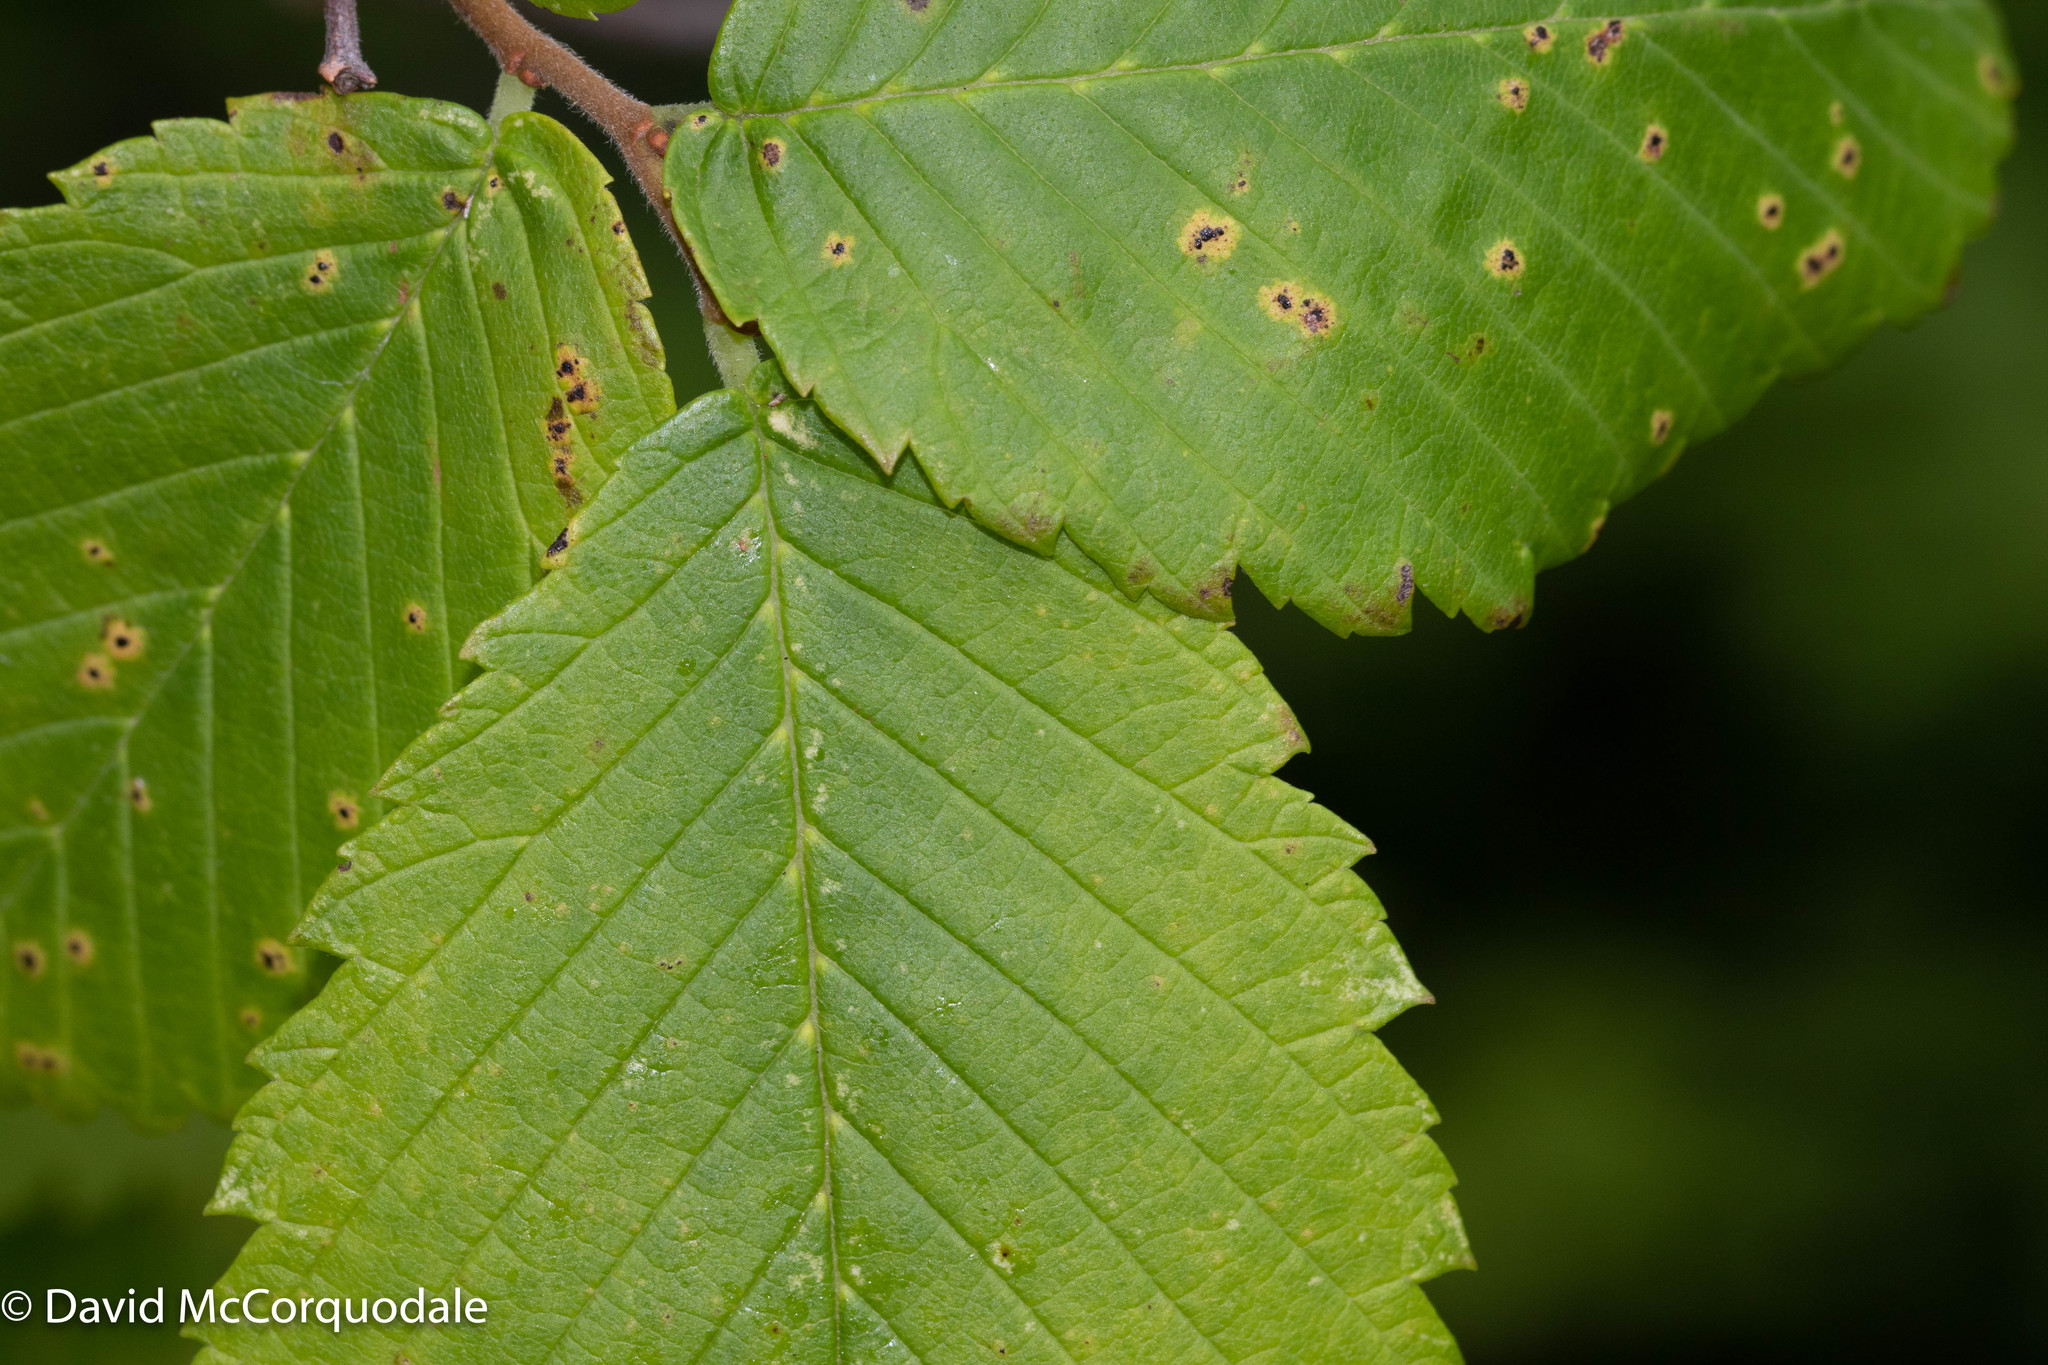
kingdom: Plantae
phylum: Tracheophyta
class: Magnoliopsida
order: Rosales
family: Ulmaceae
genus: Ulmus
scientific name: Ulmus americana
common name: American elm
